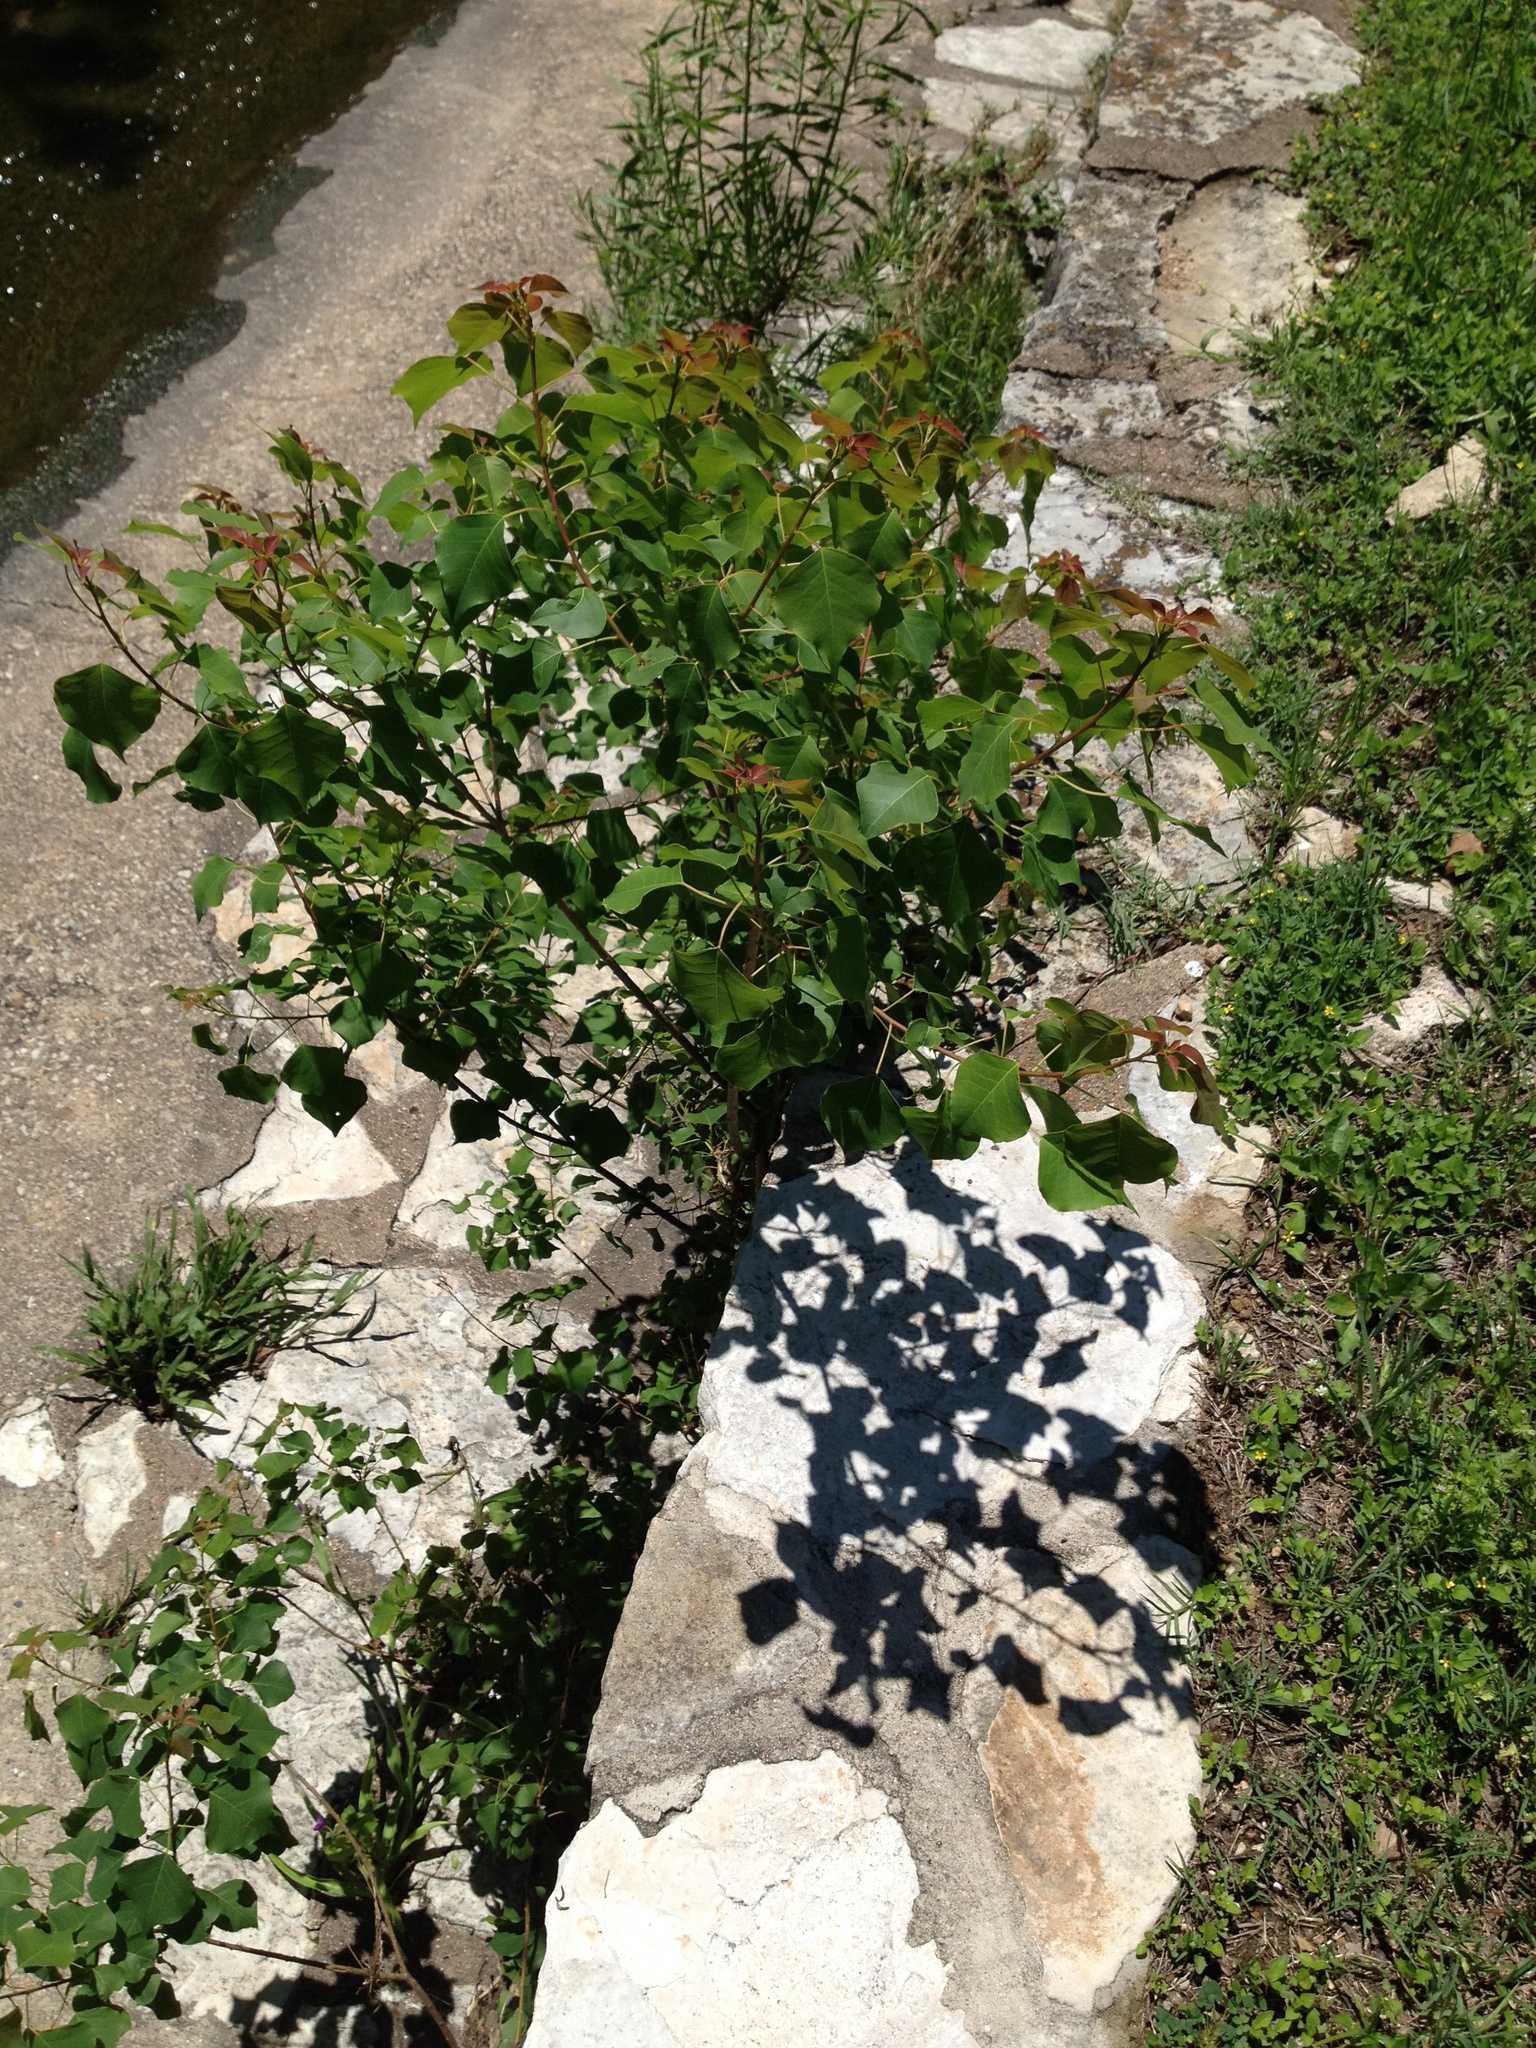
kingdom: Plantae
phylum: Tracheophyta
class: Magnoliopsida
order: Malpighiales
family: Euphorbiaceae
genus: Triadica
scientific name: Triadica sebifera
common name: Chinese tallow
